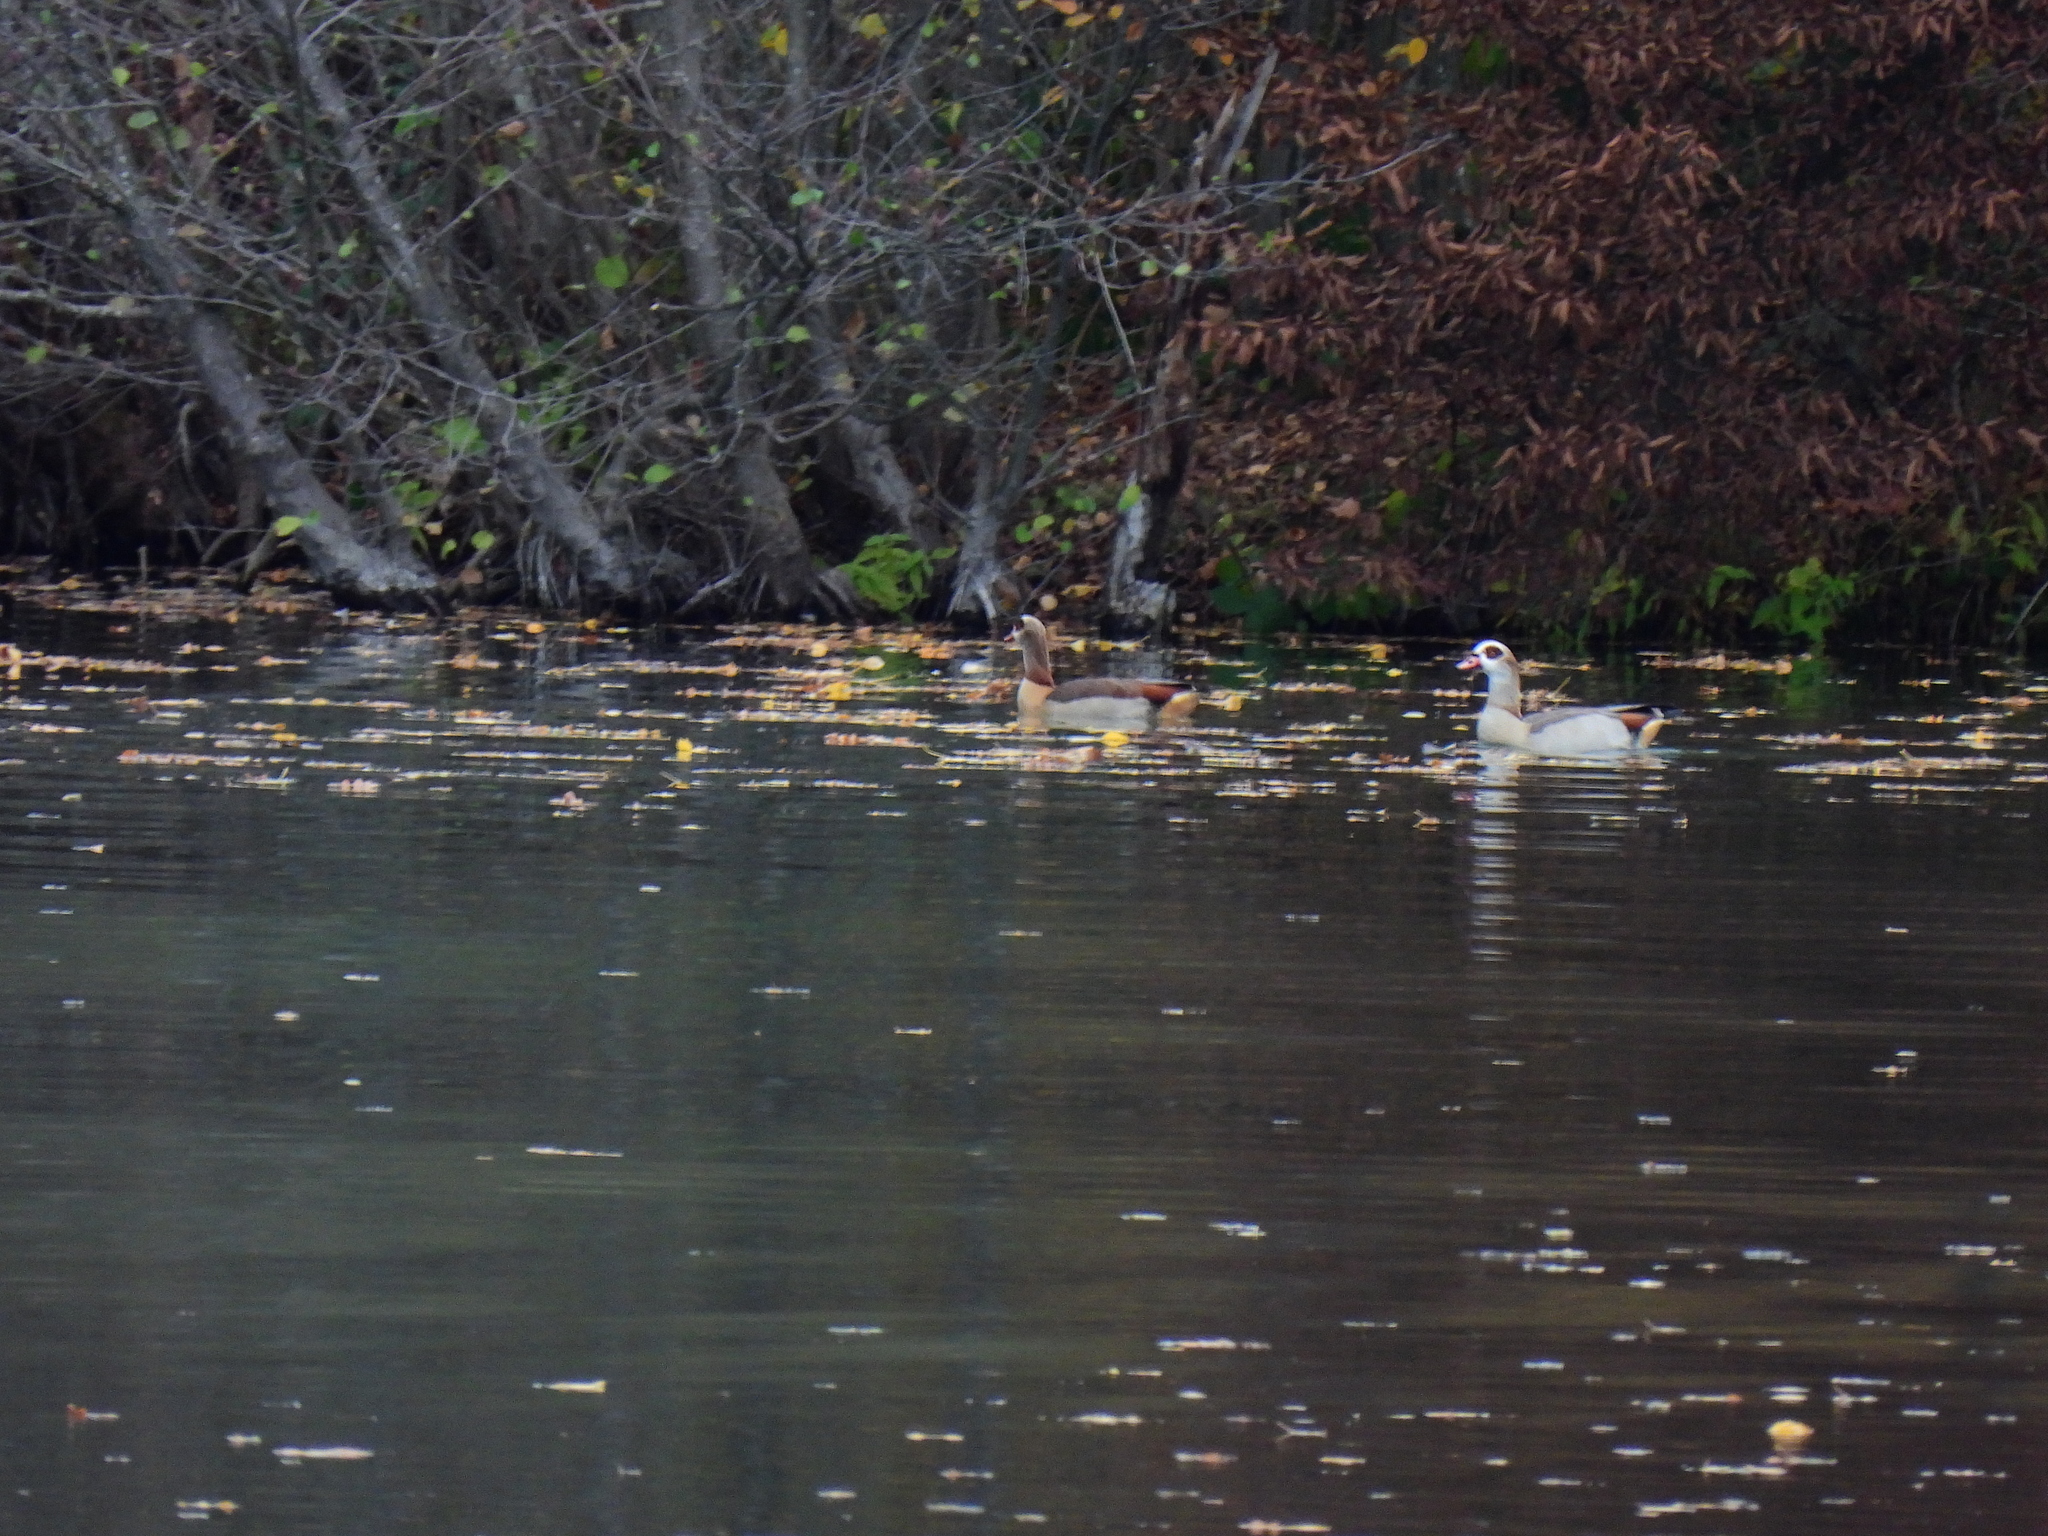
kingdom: Animalia
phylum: Chordata
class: Aves
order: Anseriformes
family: Anatidae
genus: Alopochen
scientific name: Alopochen aegyptiaca
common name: Egyptian goose
